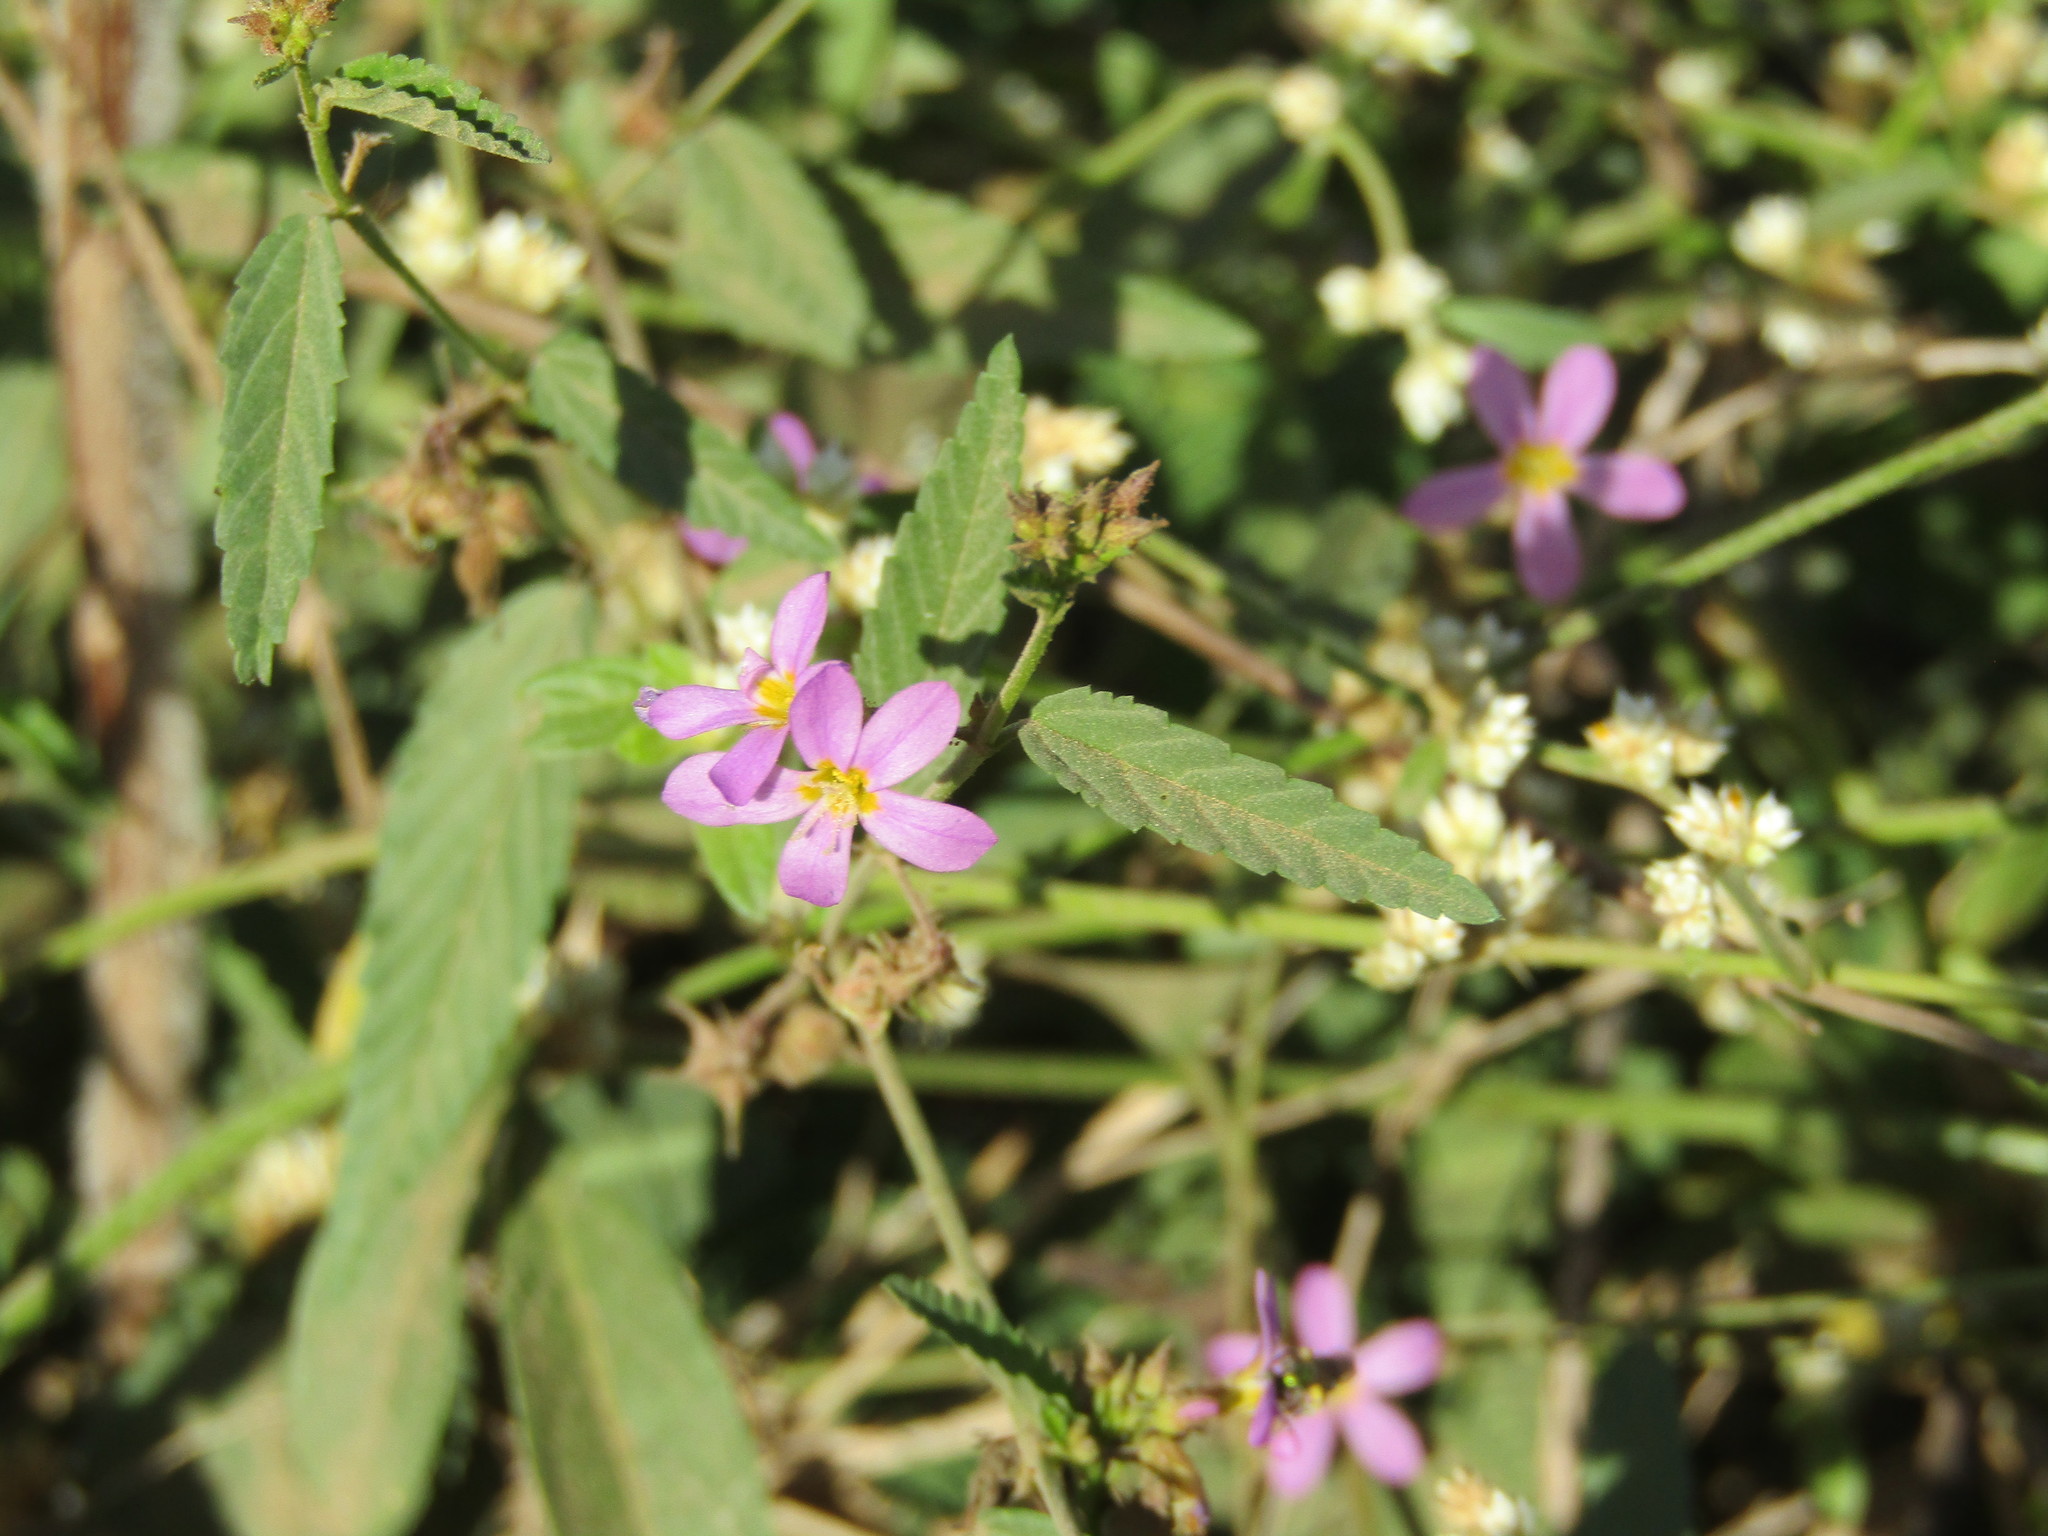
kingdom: Plantae
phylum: Tracheophyta
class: Magnoliopsida
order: Malvales
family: Malvaceae
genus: Melochia
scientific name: Melochia pyramidata
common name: Pyramidflower
